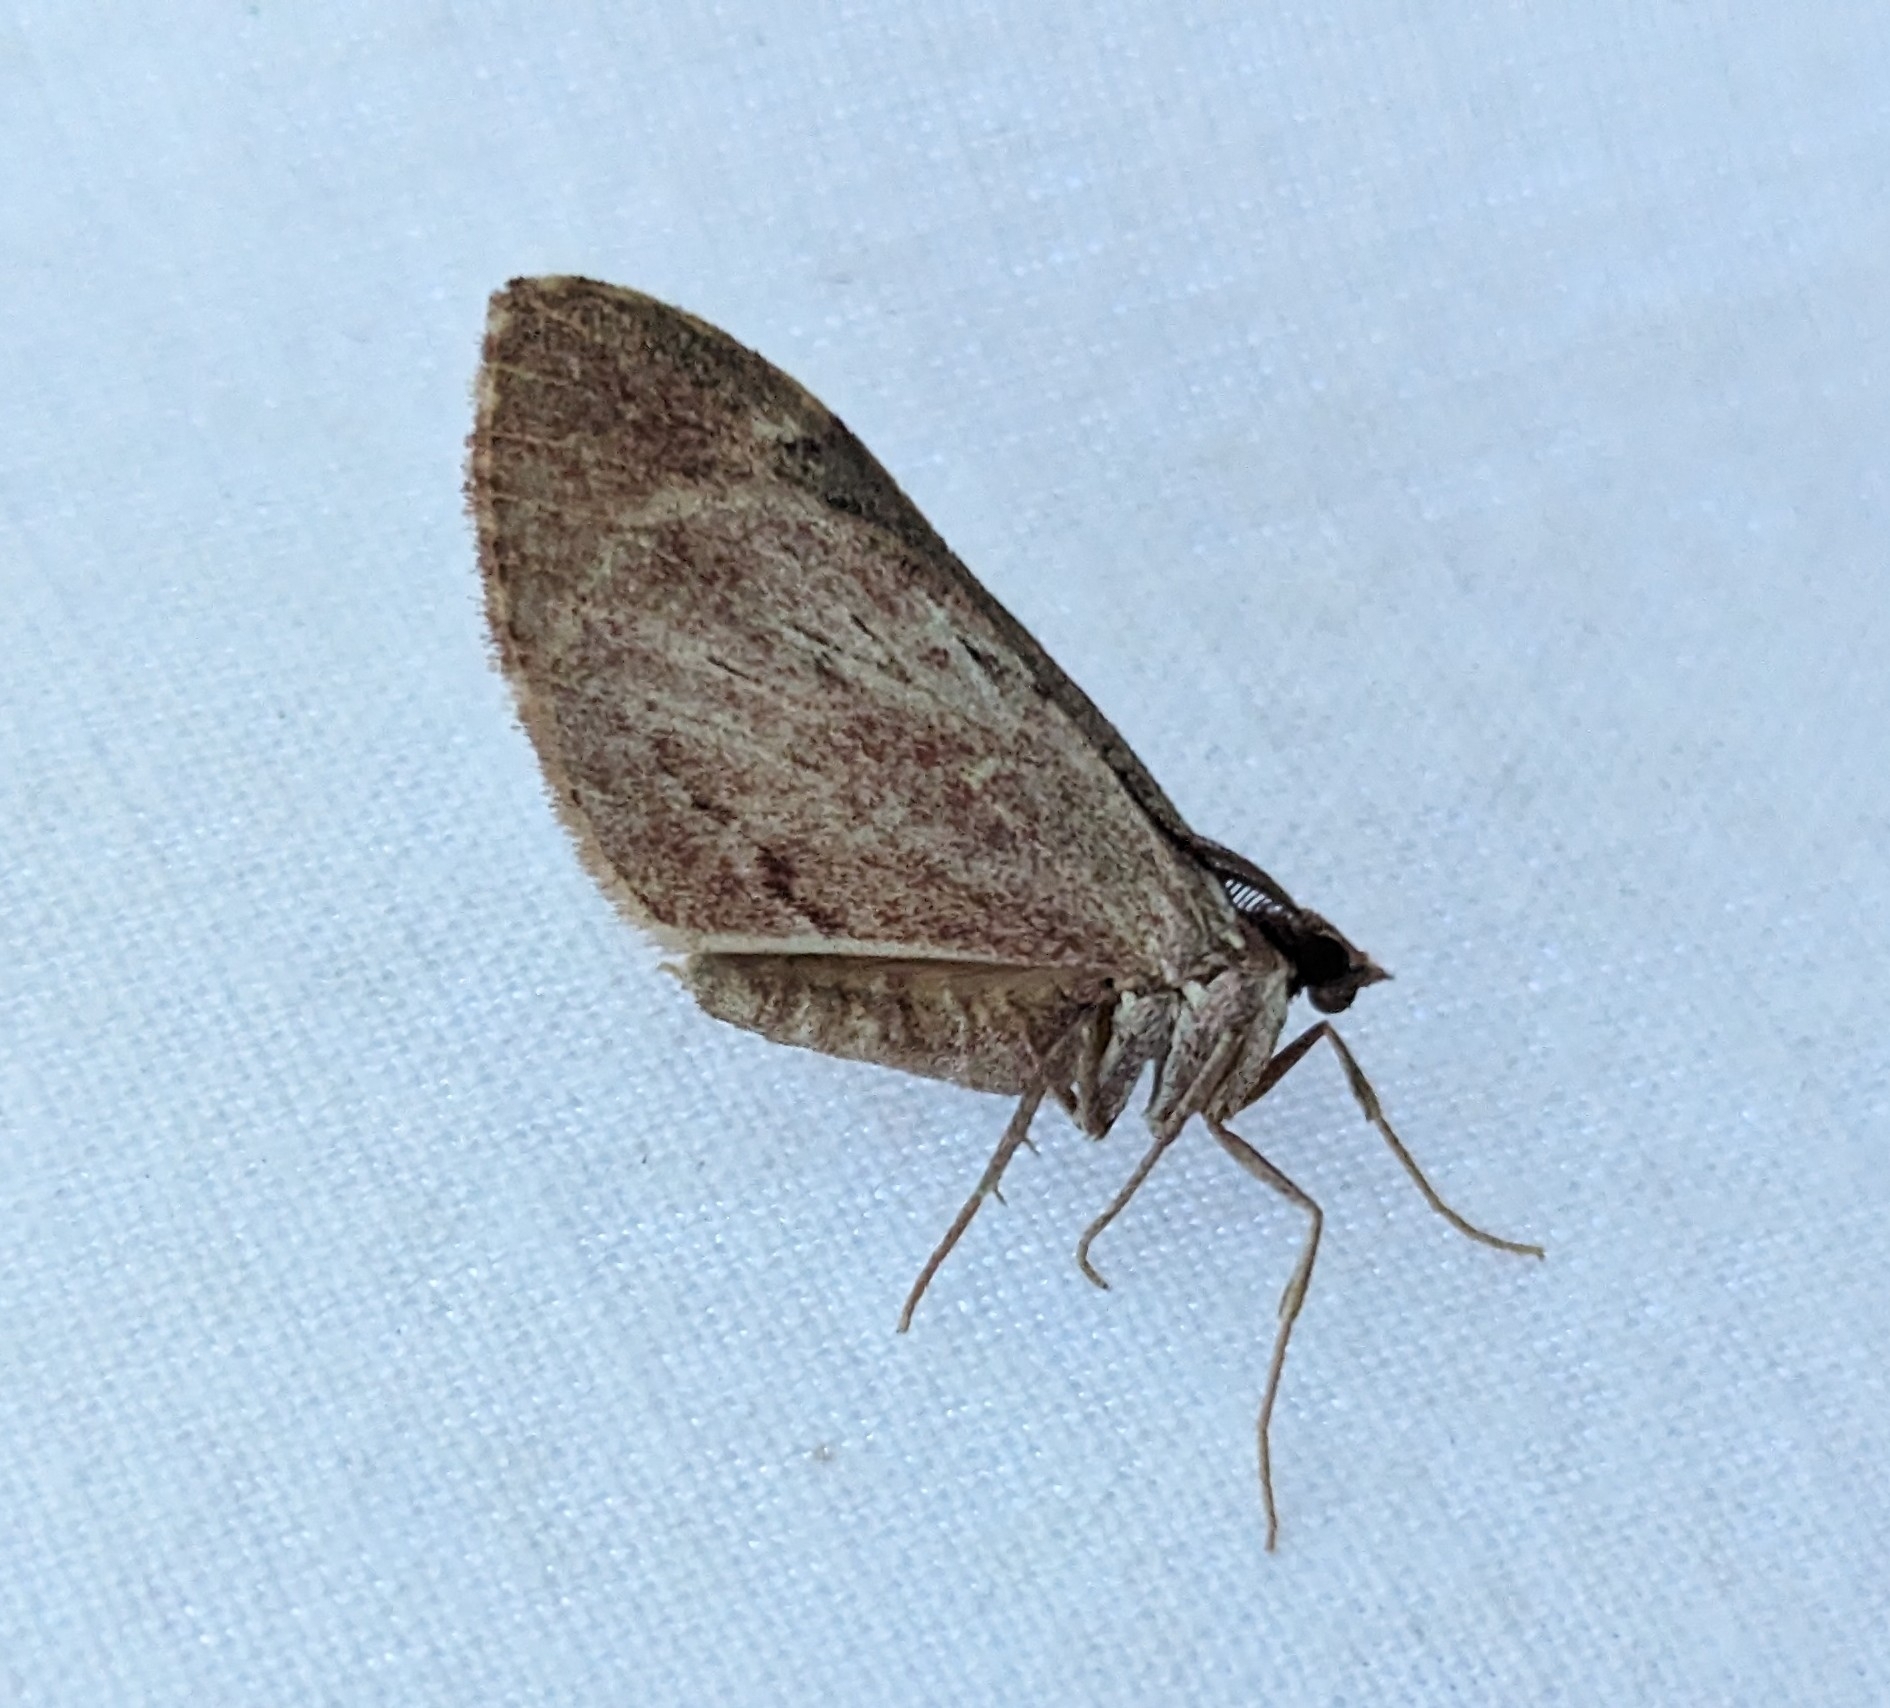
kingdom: Animalia
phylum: Arthropoda
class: Insecta
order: Lepidoptera
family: Geometridae
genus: Stamnoctenis
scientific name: Stamnoctenis pearsalli
